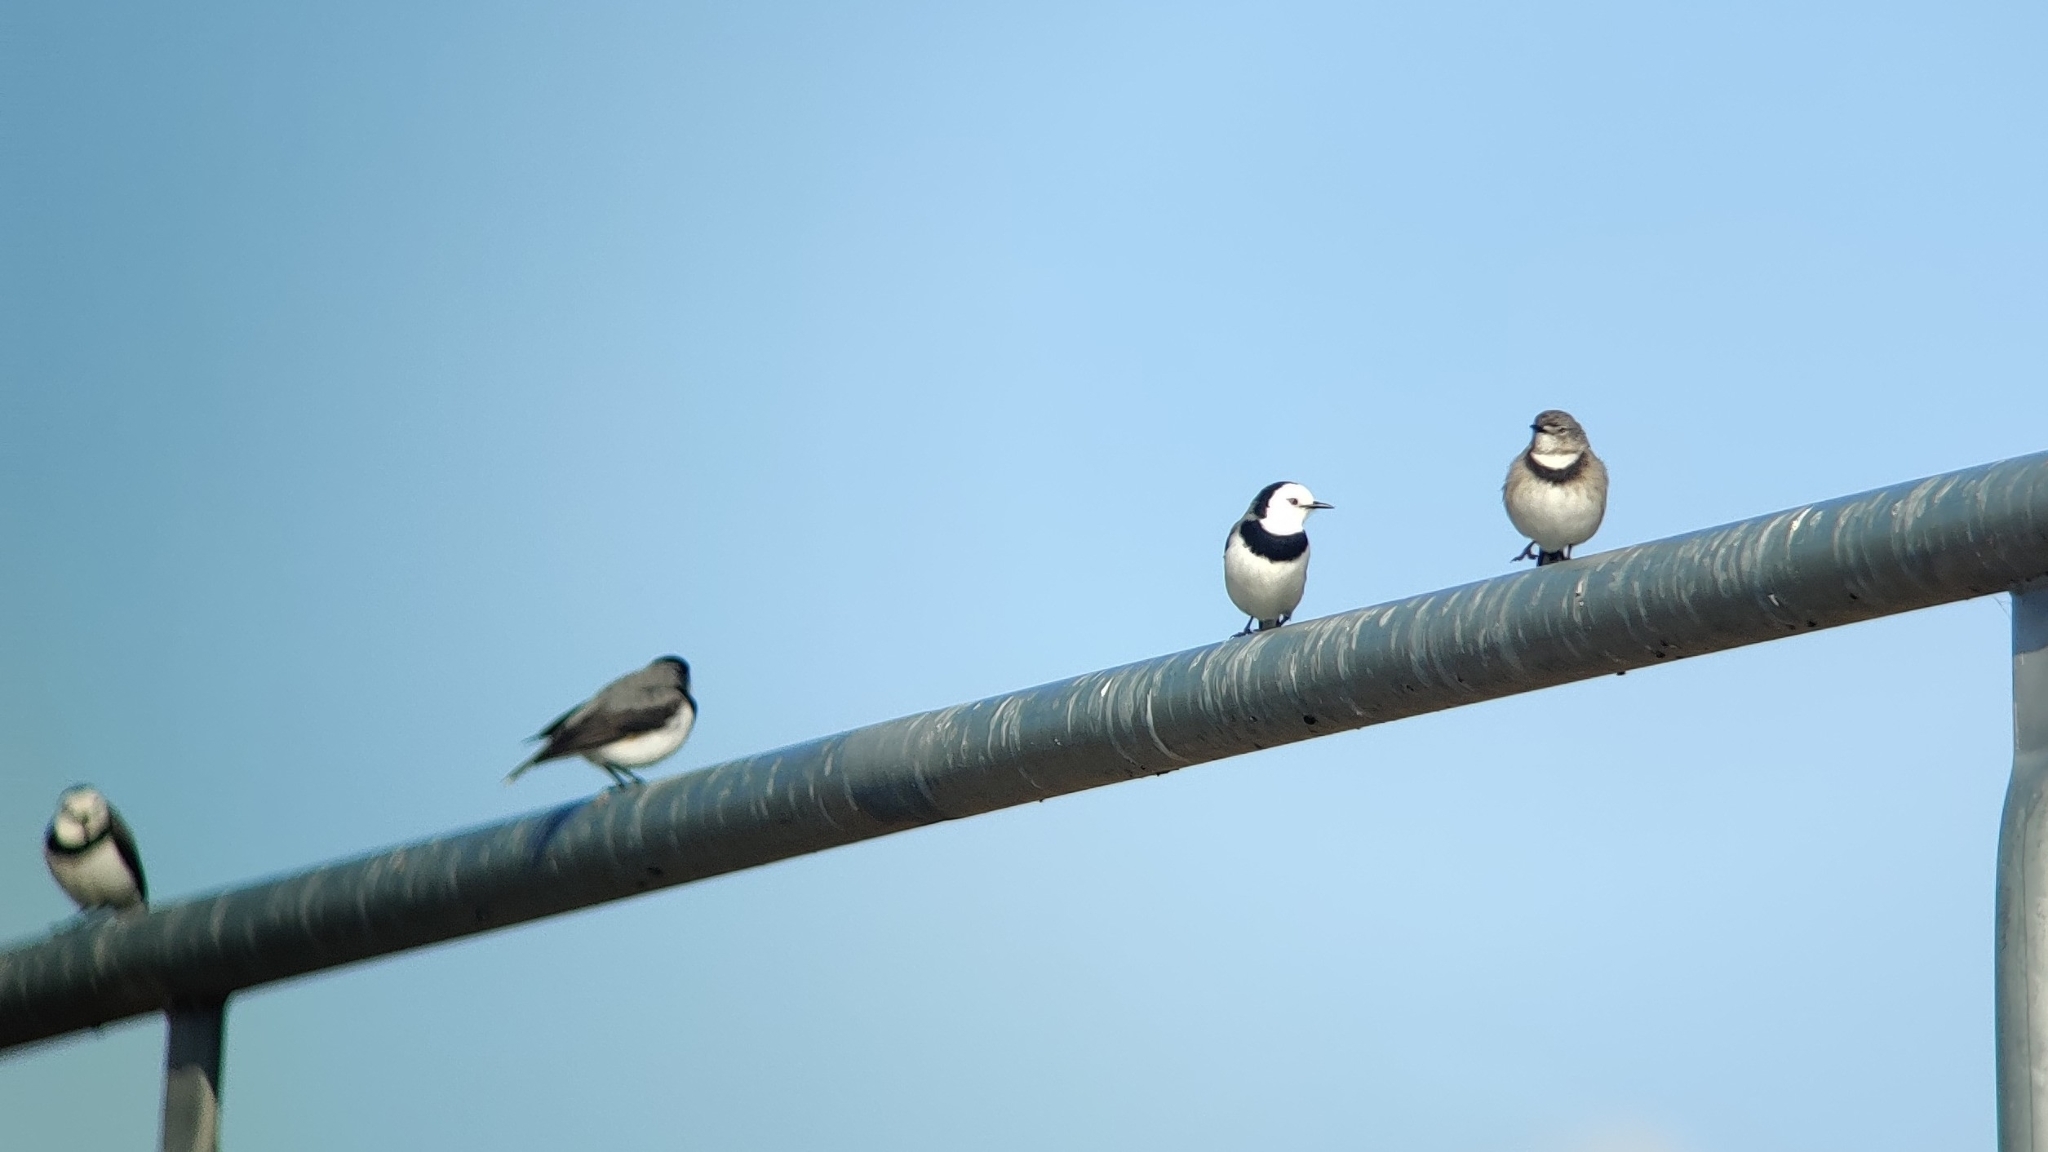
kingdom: Animalia
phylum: Chordata
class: Aves
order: Passeriformes
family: Meliphagidae
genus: Epthianura
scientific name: Epthianura albifrons
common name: White-fronted chat
